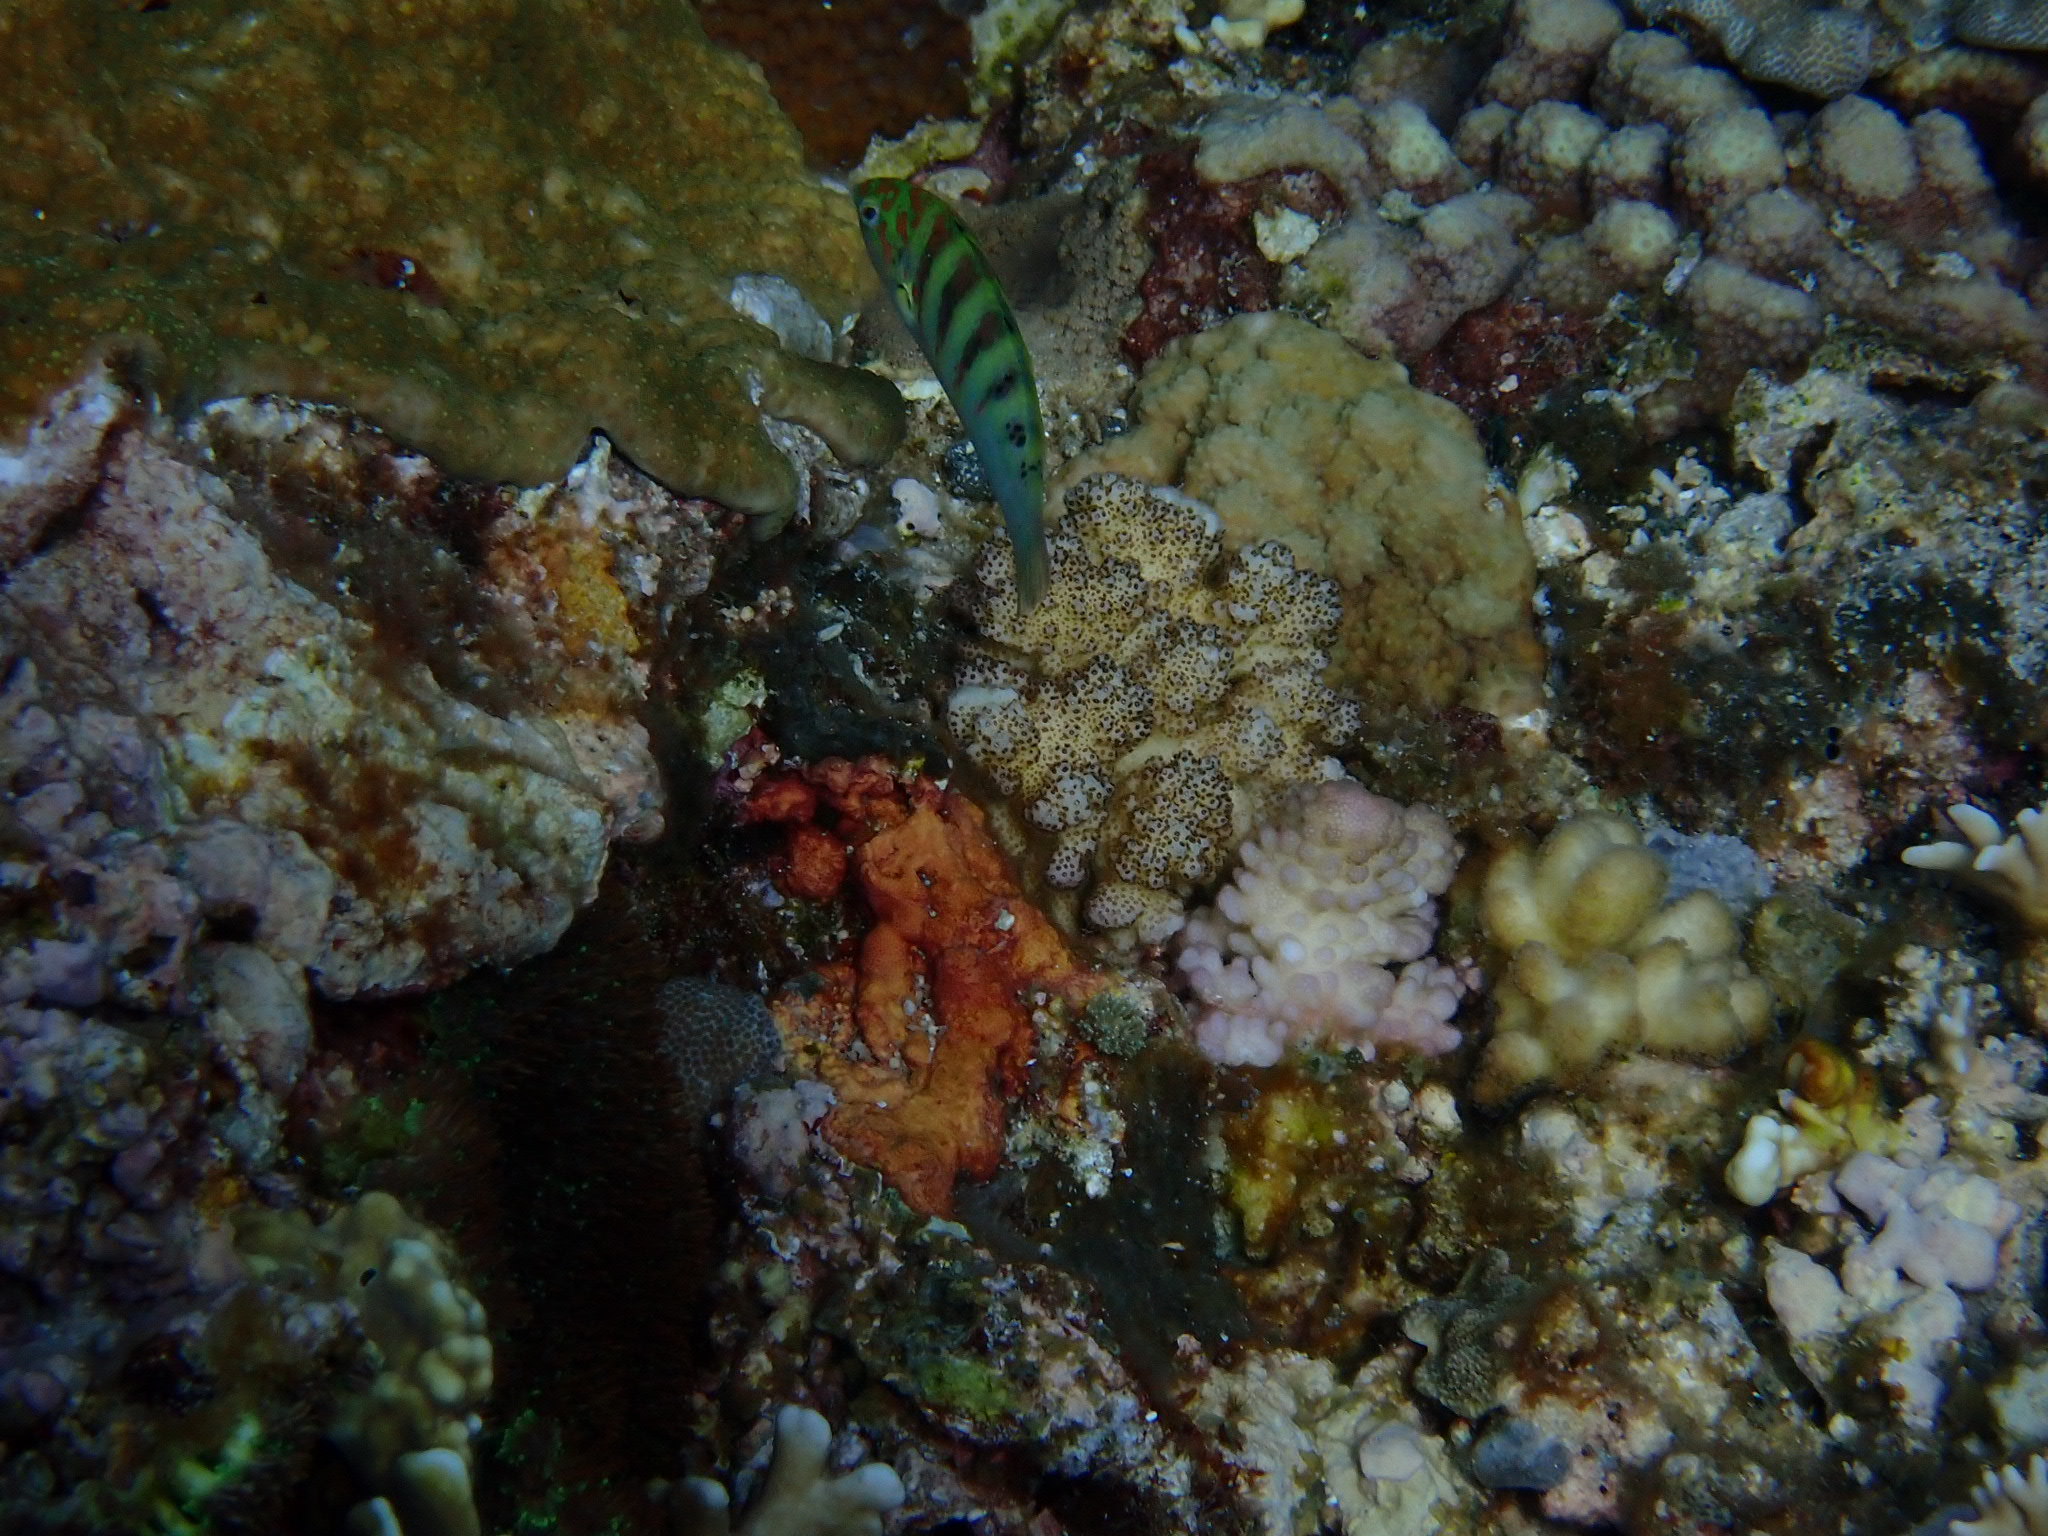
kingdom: Animalia
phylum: Chordata
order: Perciformes
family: Labridae
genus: Thalassoma
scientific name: Thalassoma hardwicke
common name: Sixbar wrasse
